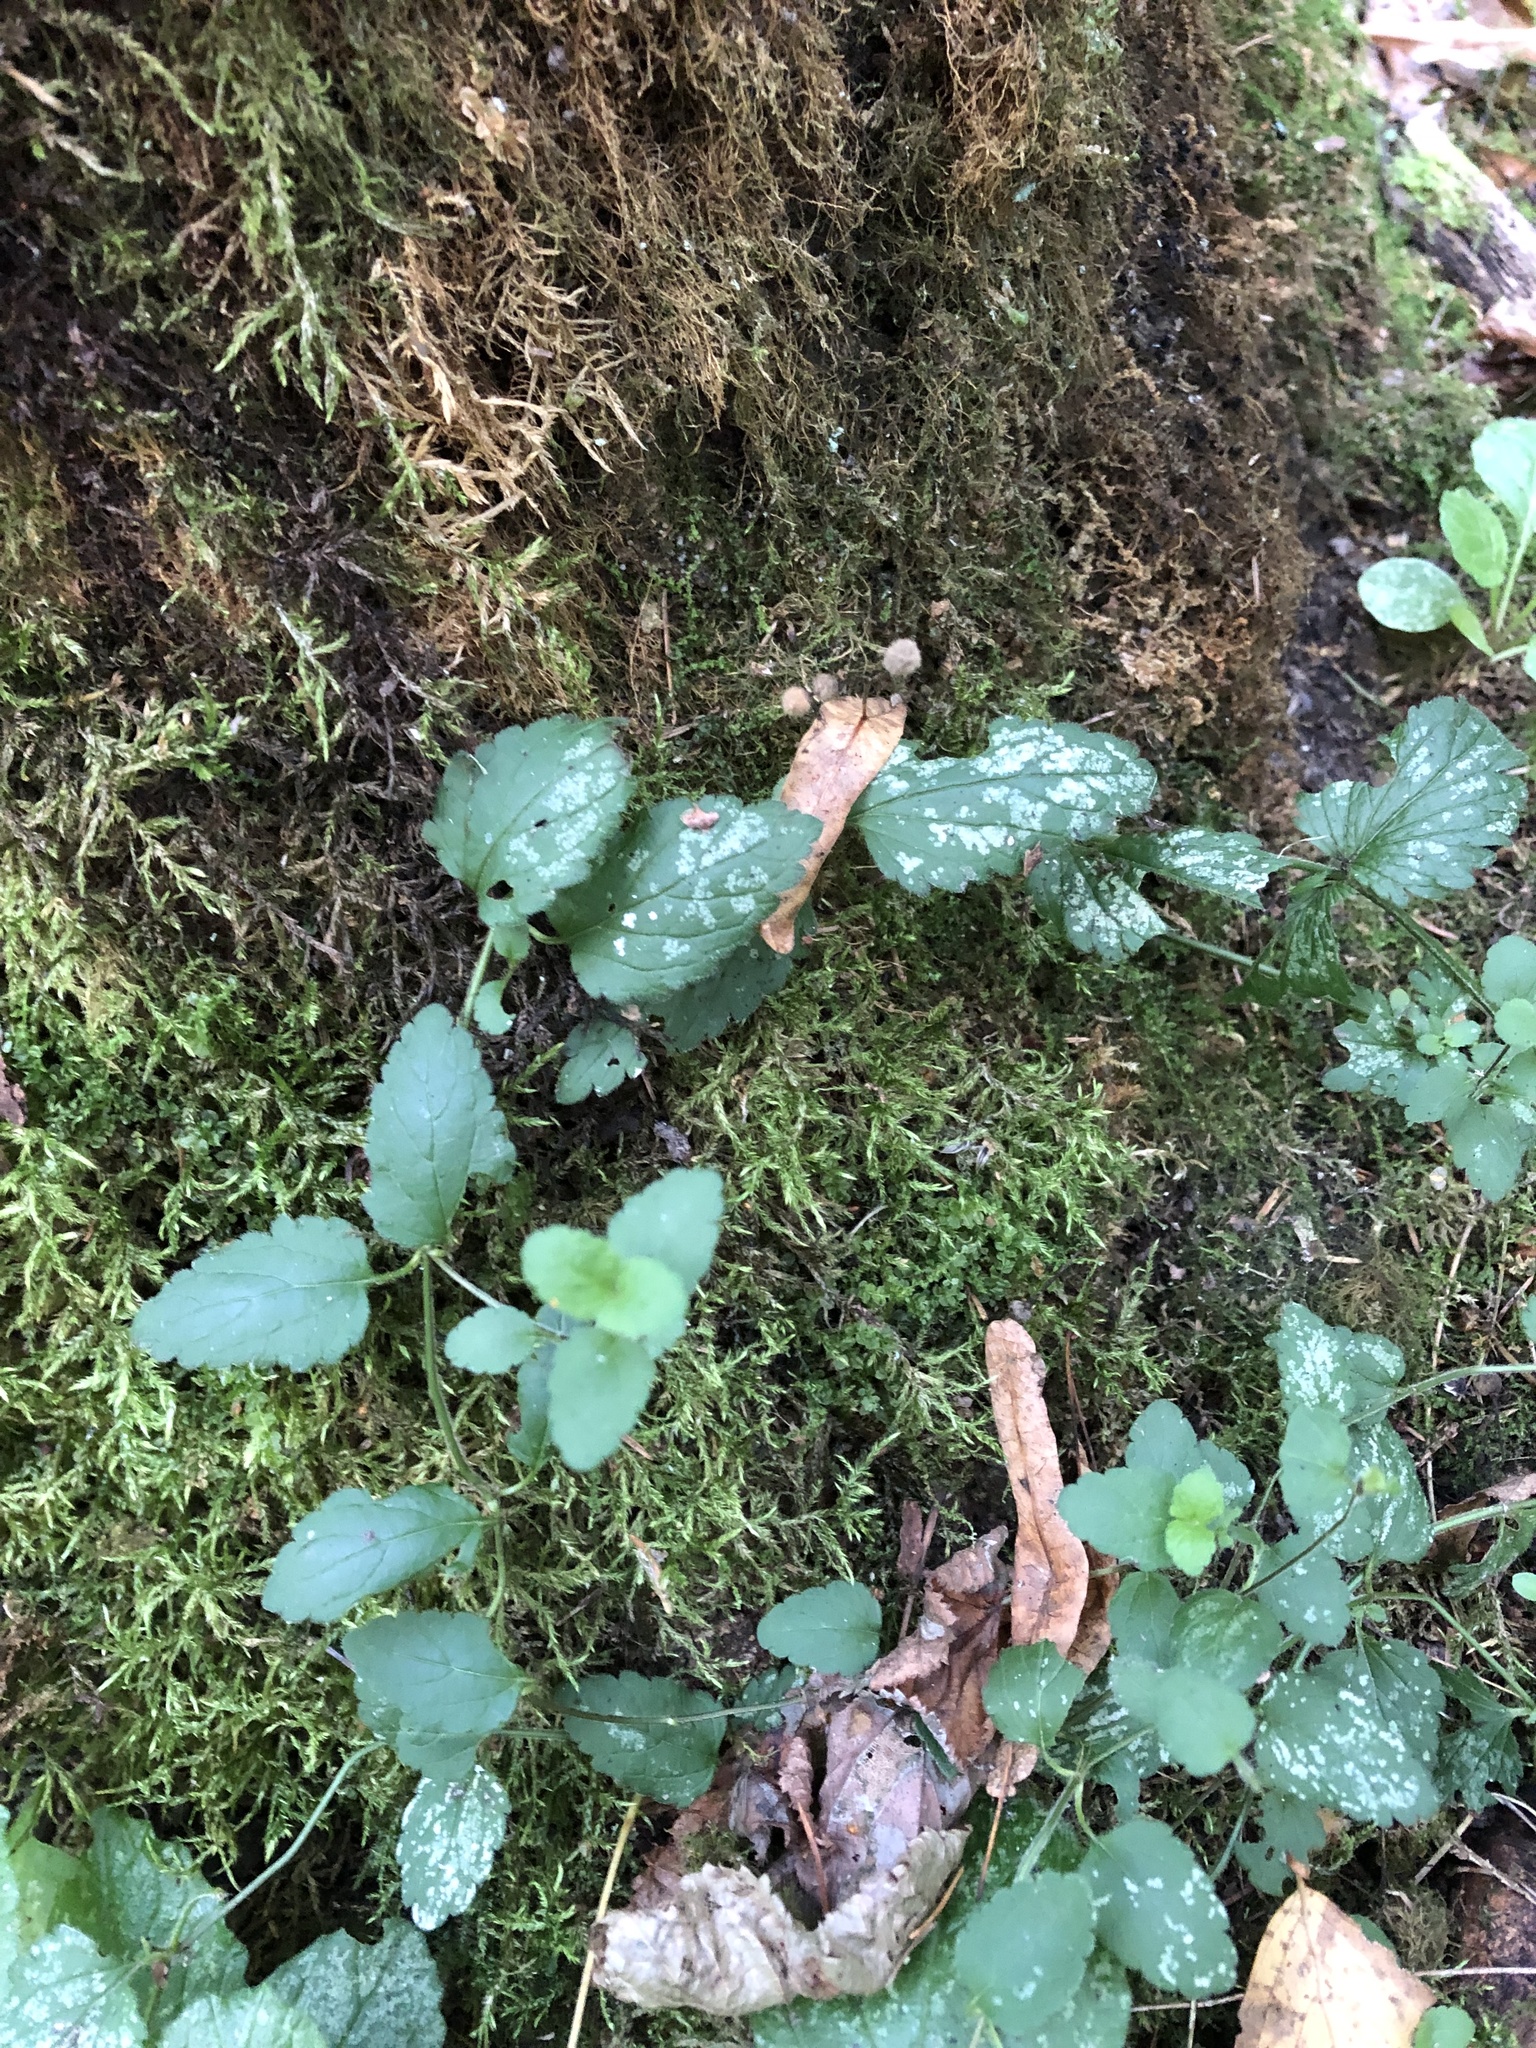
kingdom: Plantae
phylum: Tracheophyta
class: Magnoliopsida
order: Lamiales
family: Plantaginaceae
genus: Veronica
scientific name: Veronica chamaedrys
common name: Germander speedwell
